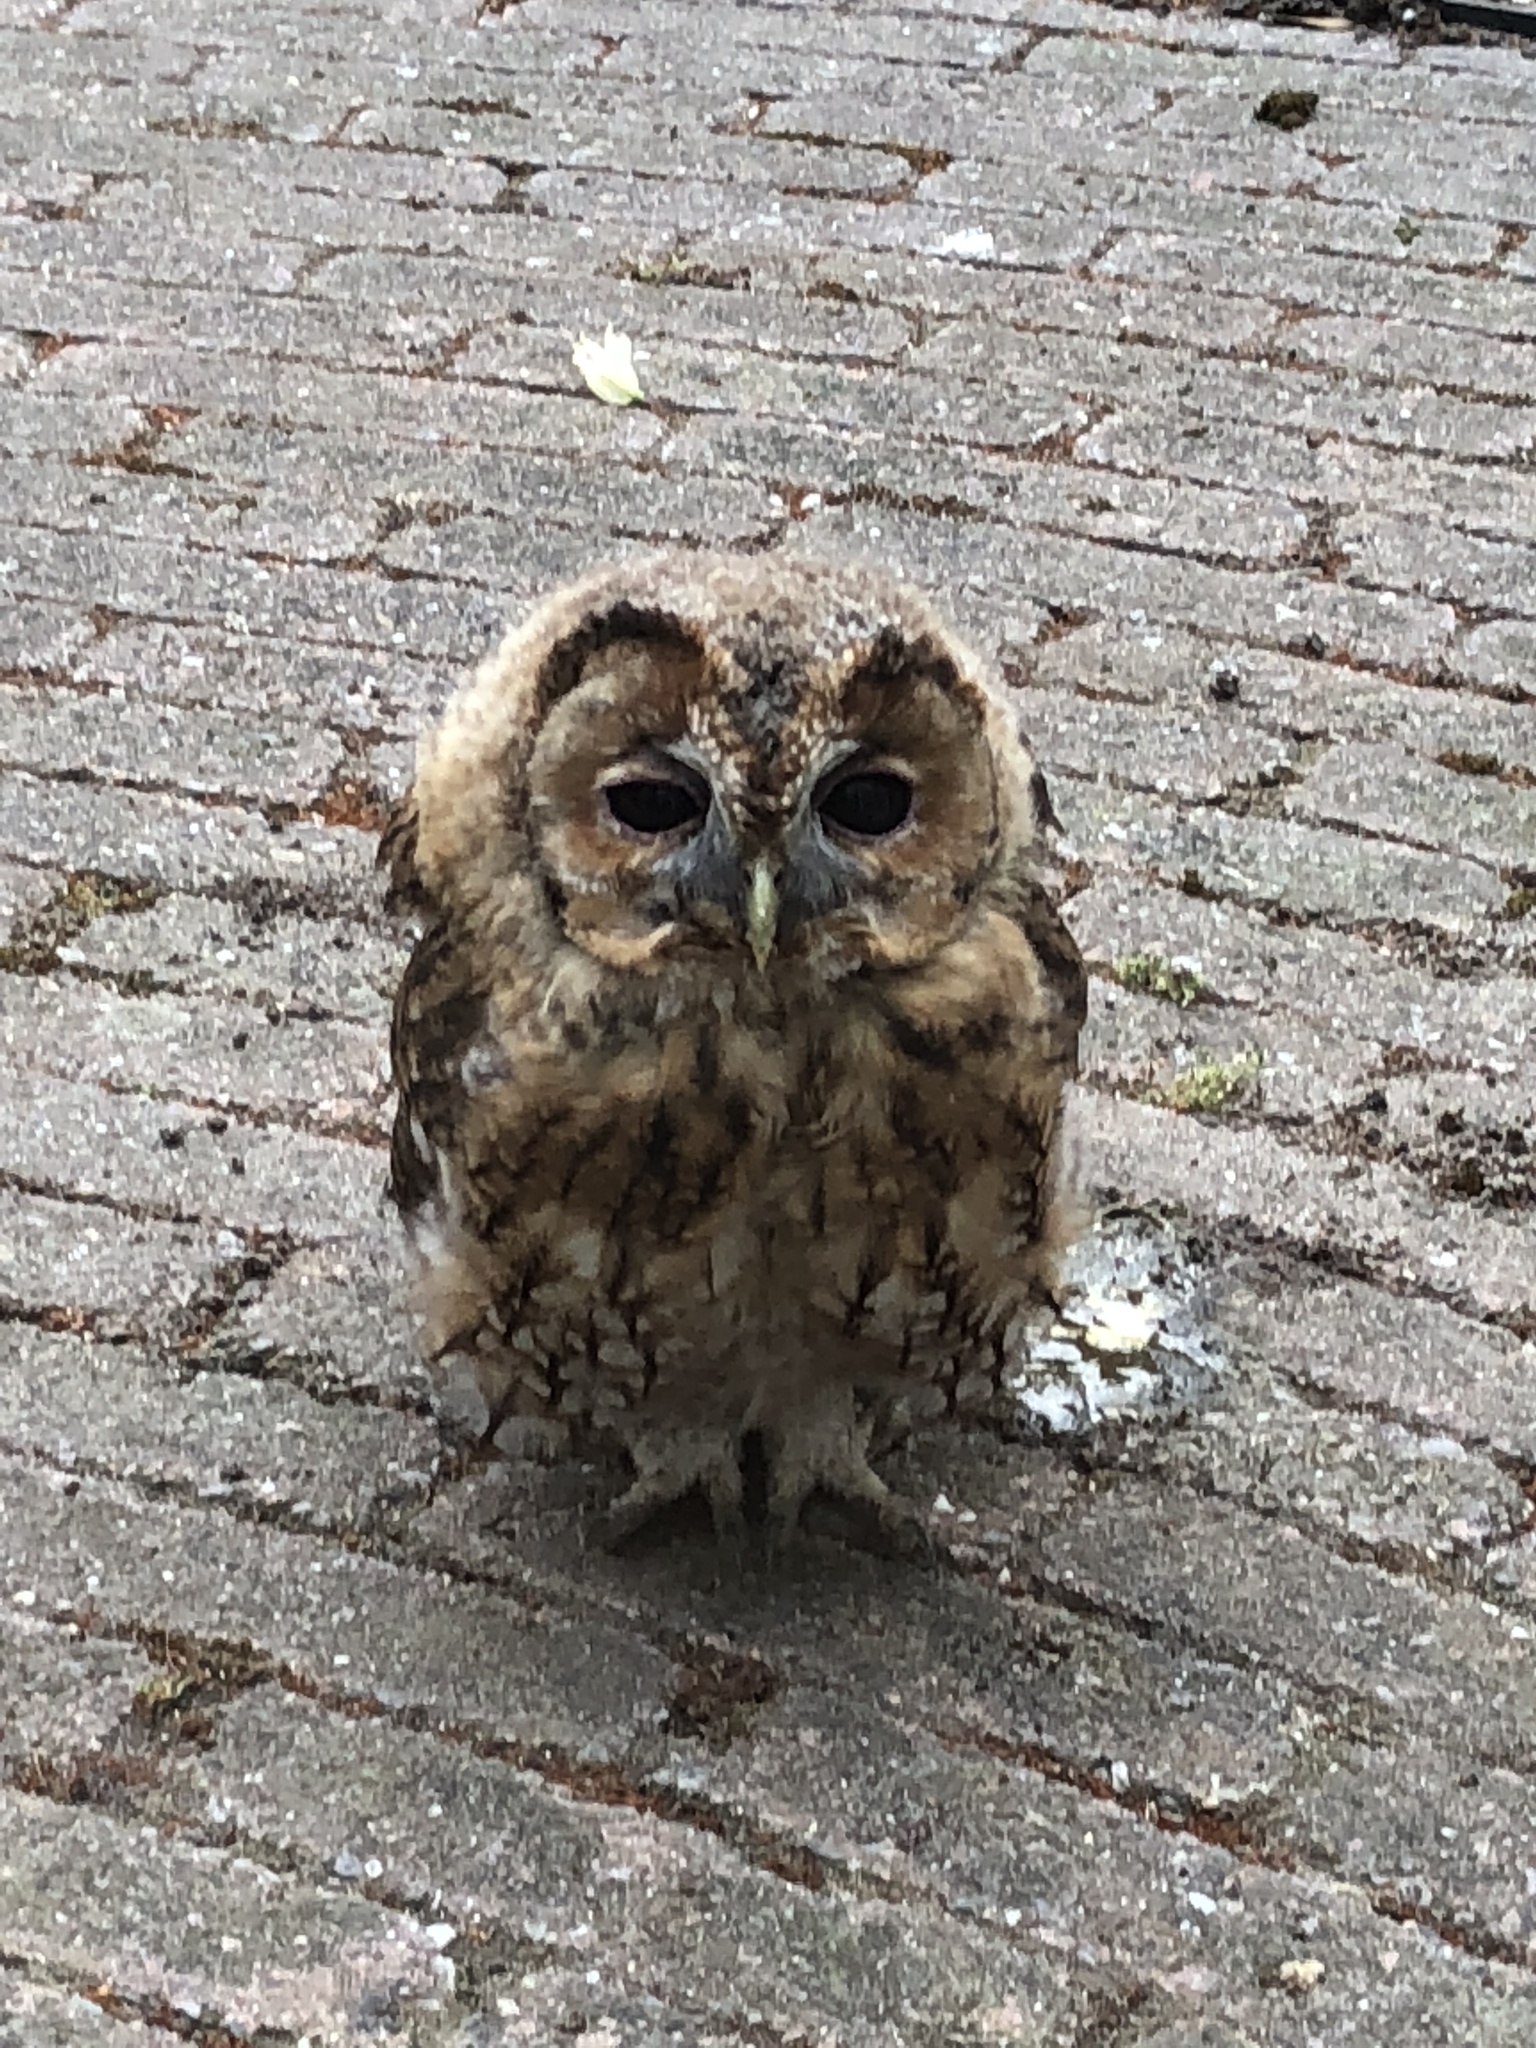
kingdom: Animalia
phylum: Chordata
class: Aves
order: Strigiformes
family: Strigidae
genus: Strix
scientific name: Strix aluco
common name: Tawny owl
